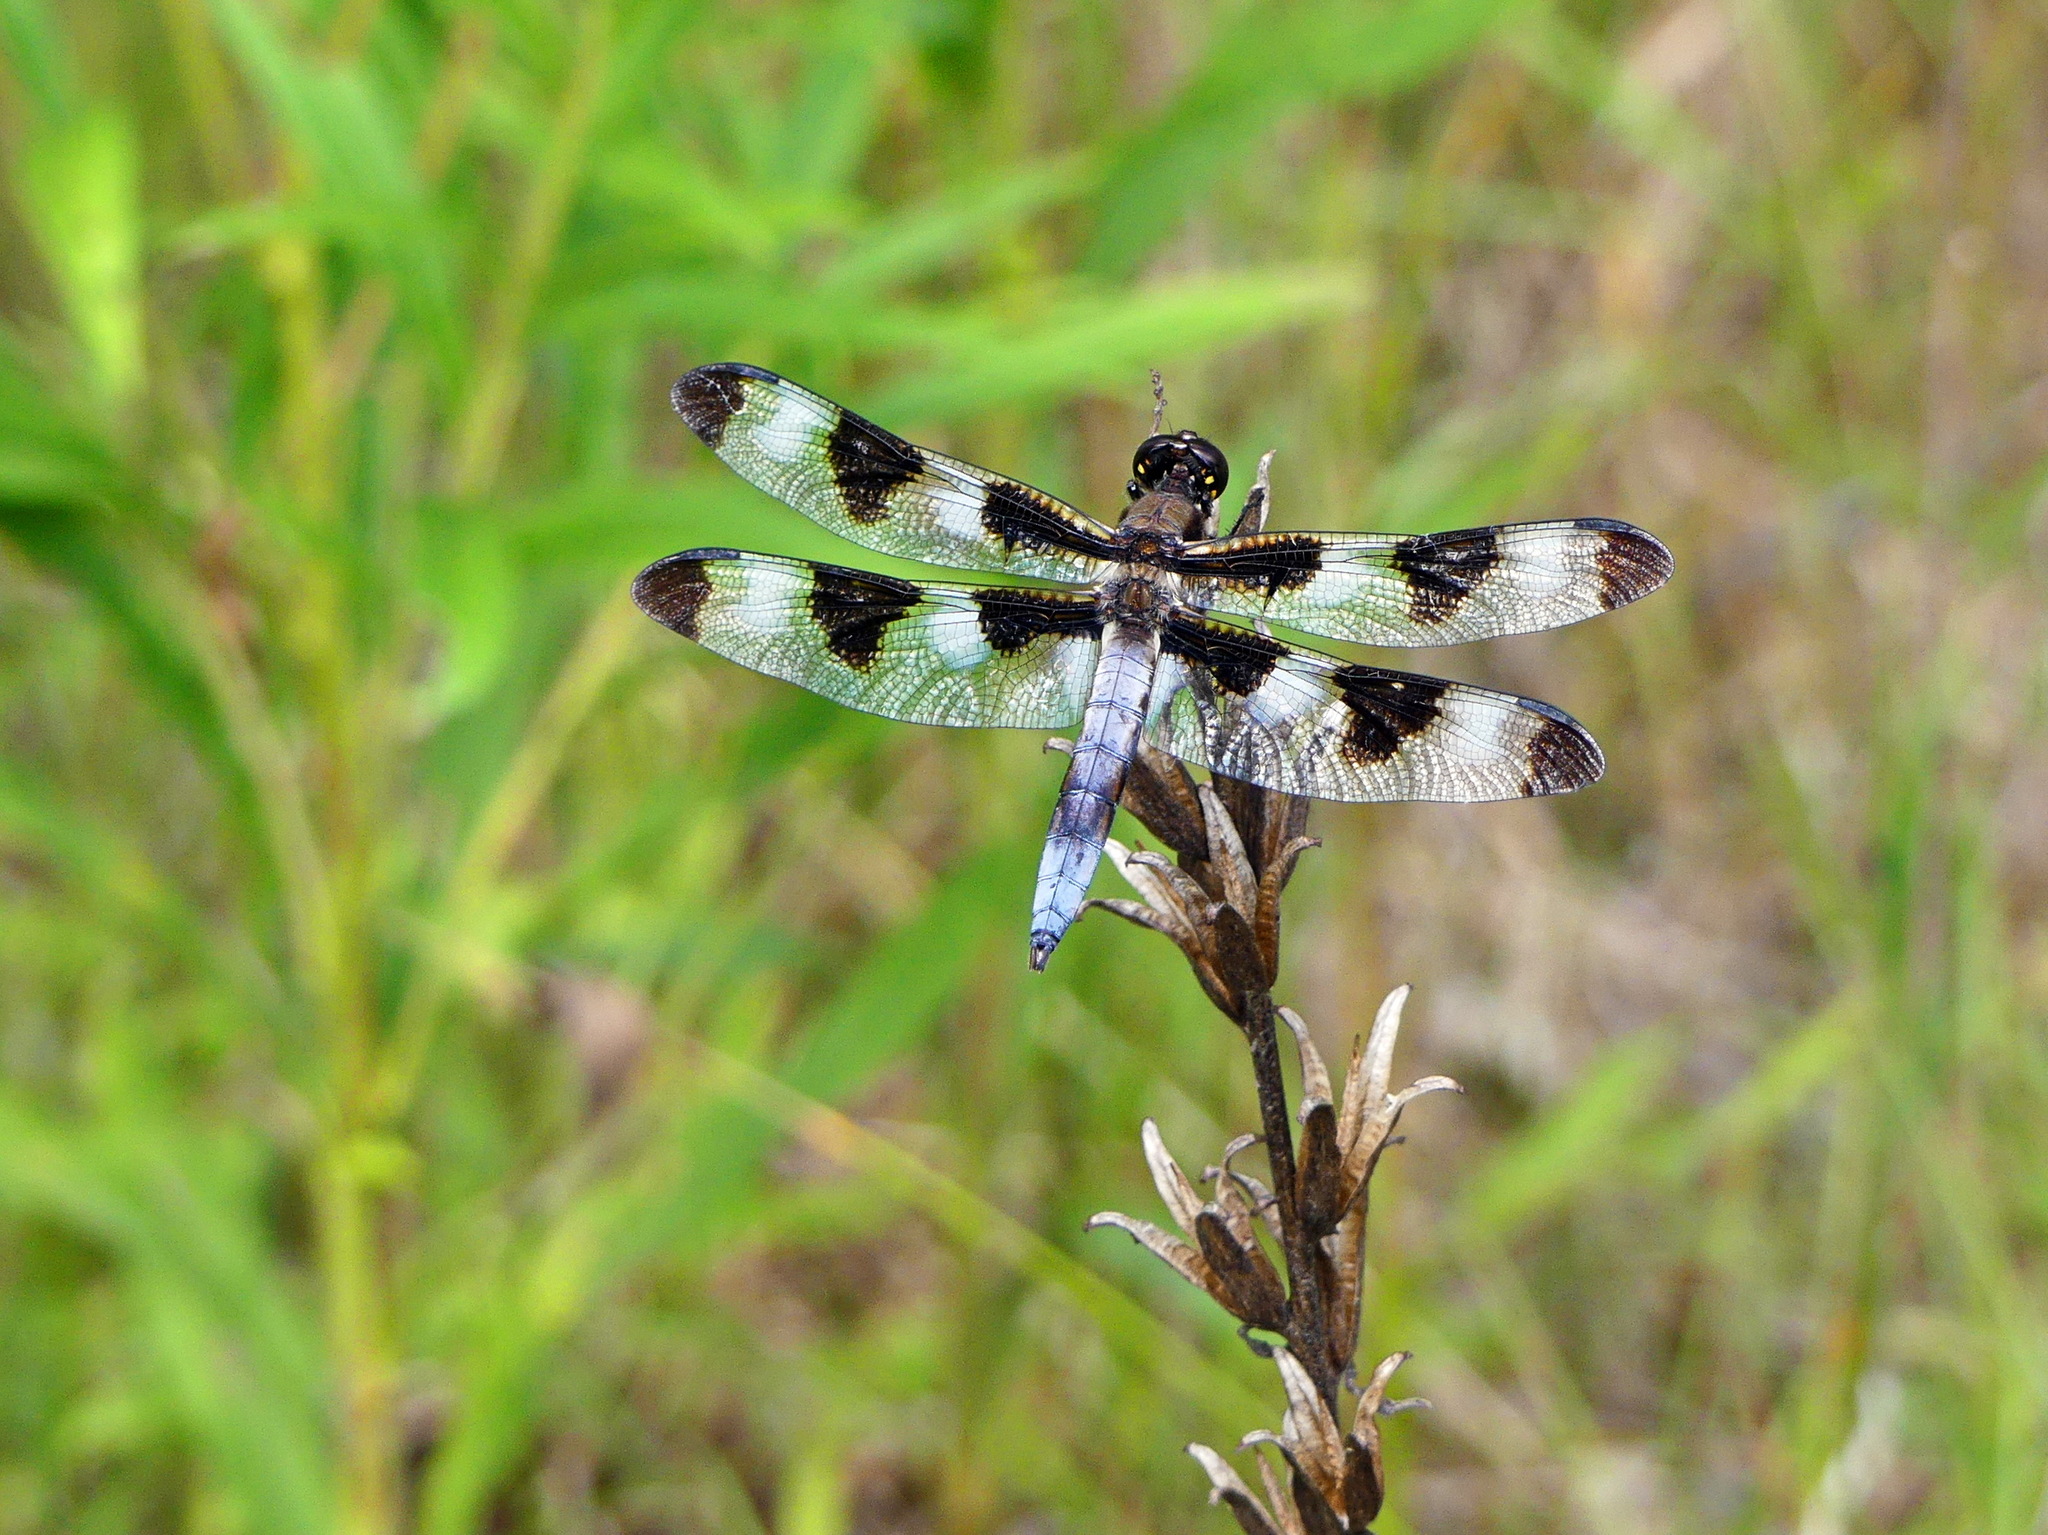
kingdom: Animalia
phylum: Arthropoda
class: Insecta
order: Odonata
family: Libellulidae
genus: Libellula
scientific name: Libellula pulchella
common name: Twelve-spotted skimmer
